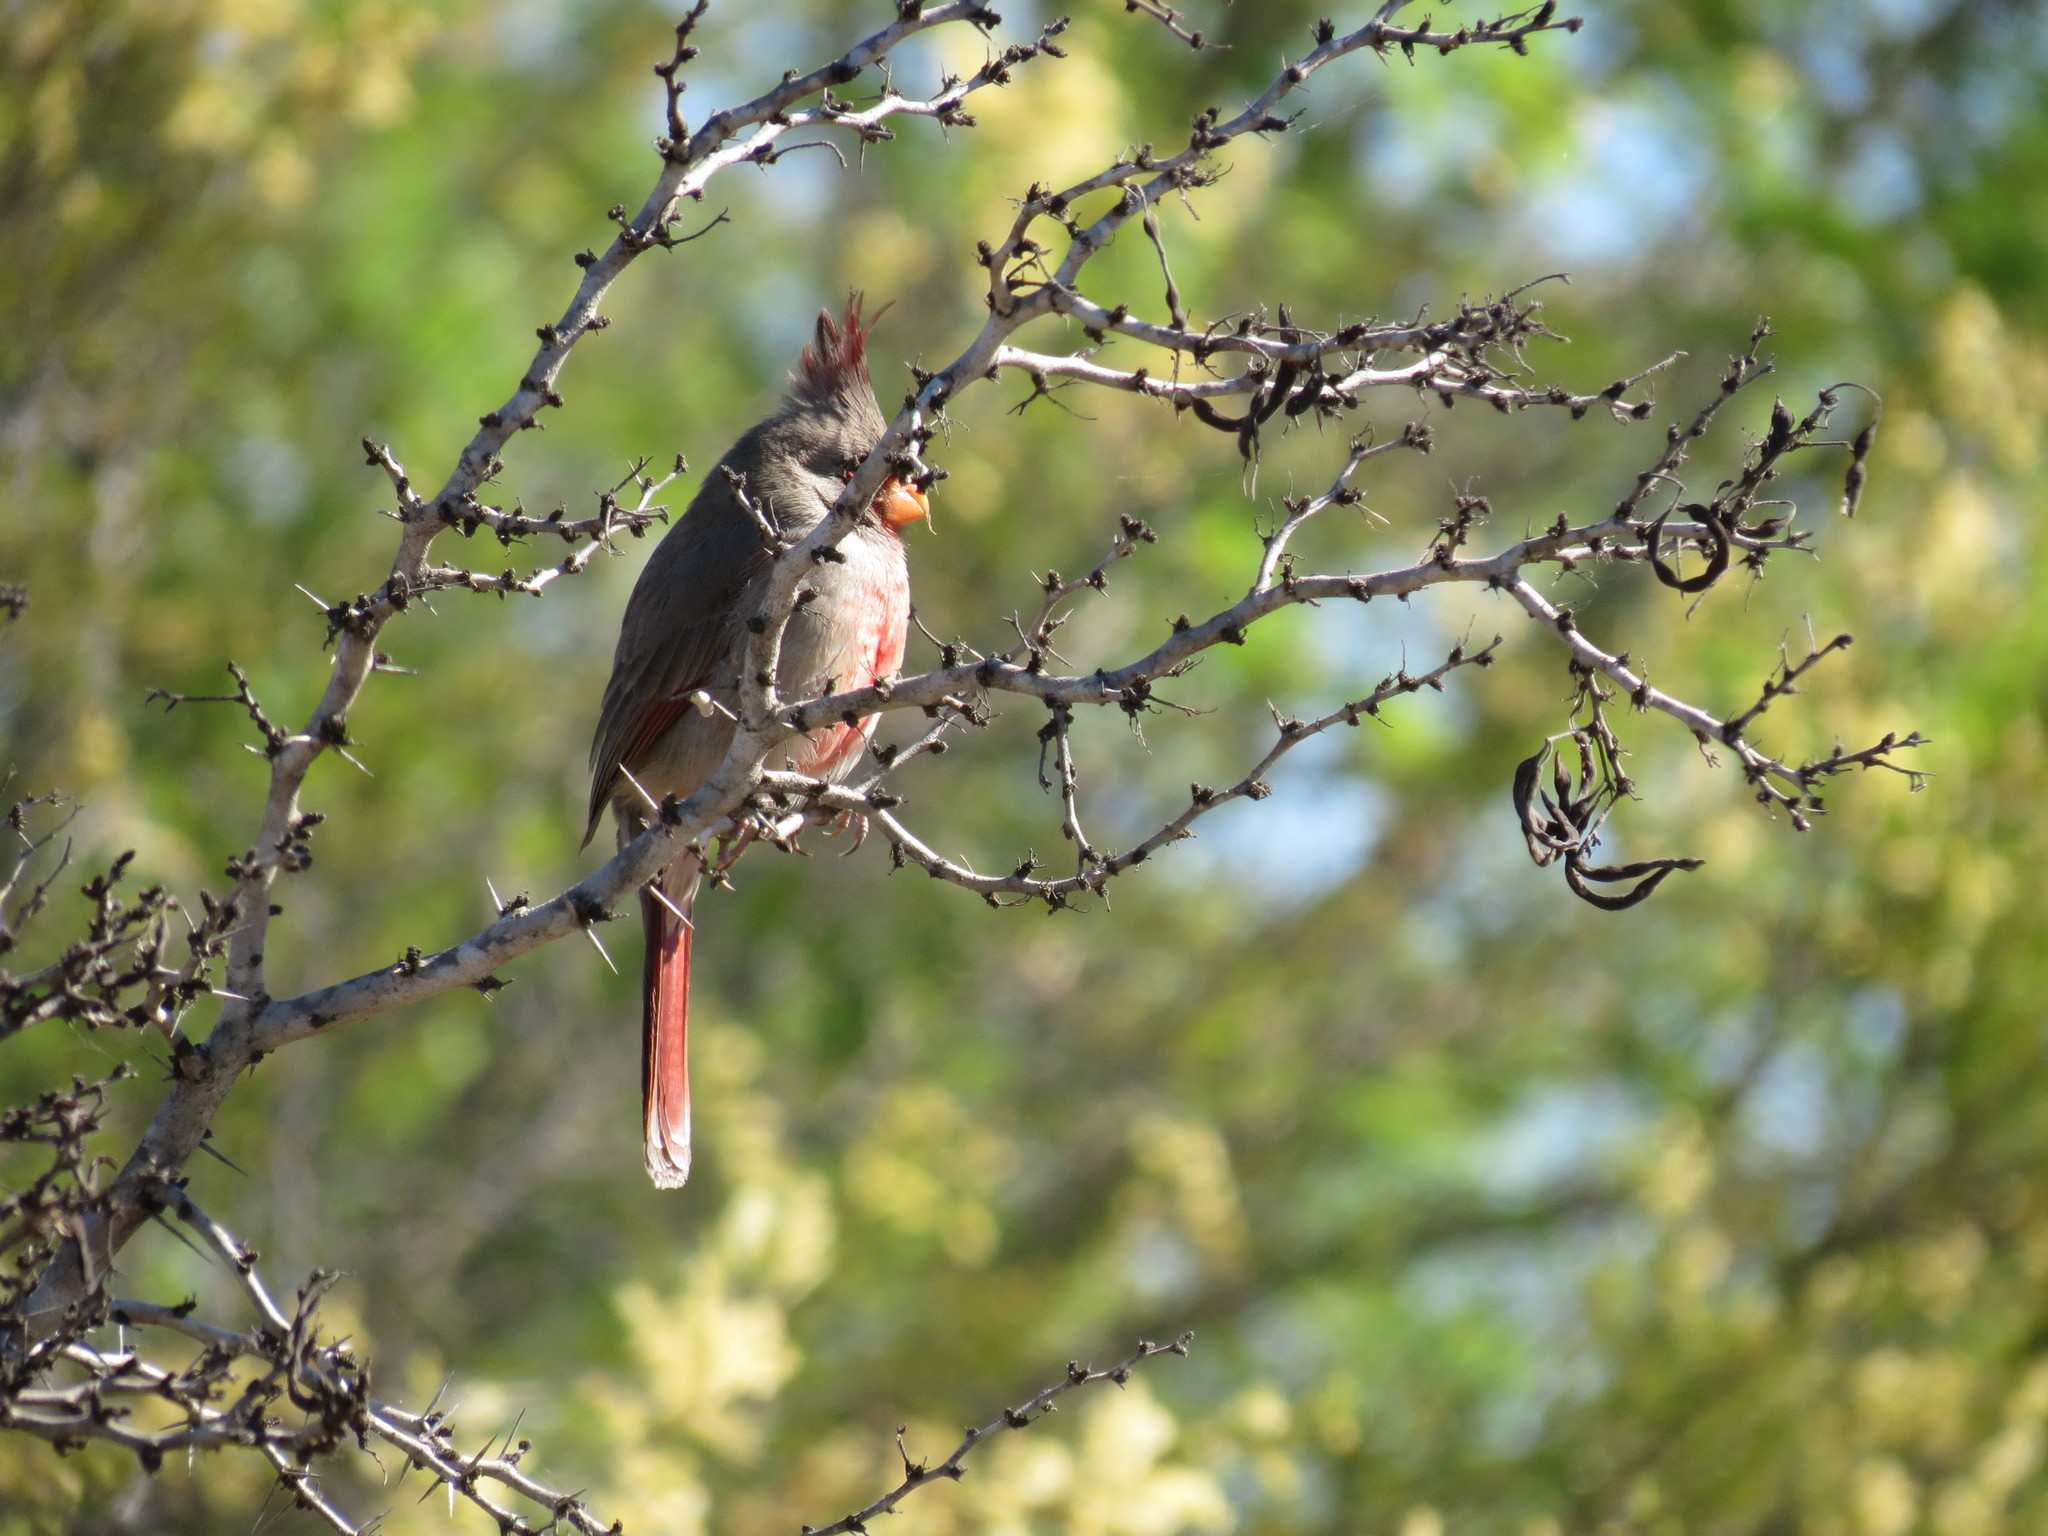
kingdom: Animalia
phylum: Chordata
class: Aves
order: Passeriformes
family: Cardinalidae
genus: Cardinalis
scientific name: Cardinalis sinuatus
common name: Pyrrhuloxia
